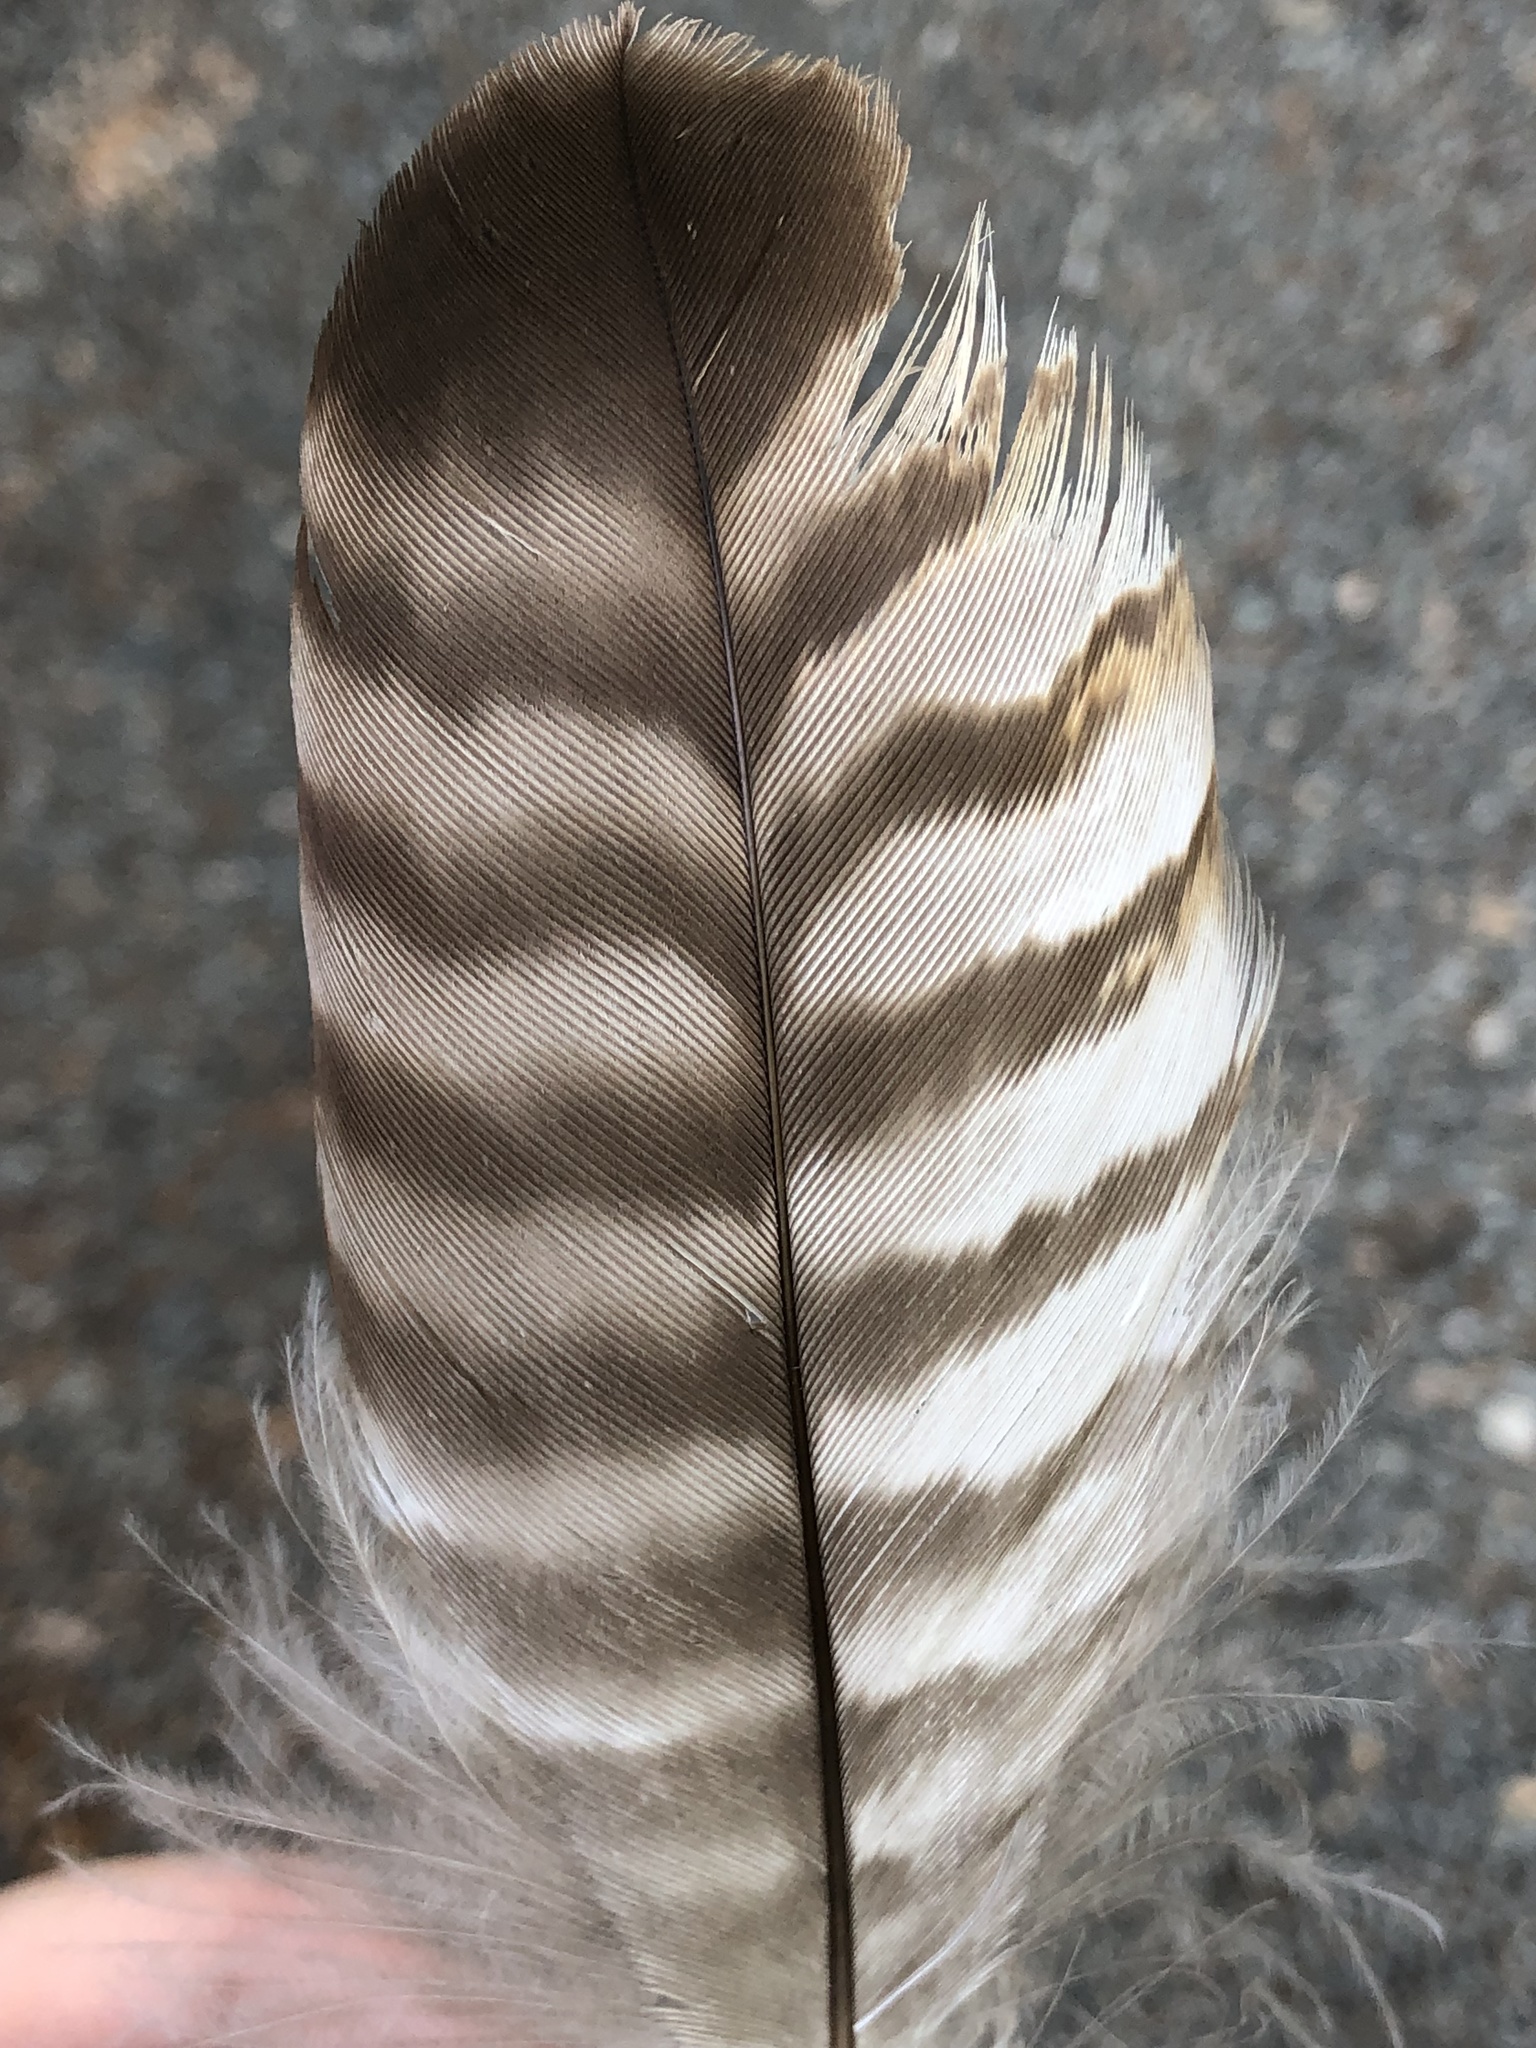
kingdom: Animalia
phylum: Chordata
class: Aves
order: Accipitriformes
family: Accipitridae
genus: Buteo
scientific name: Buteo jamaicensis
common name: Red-tailed hawk
